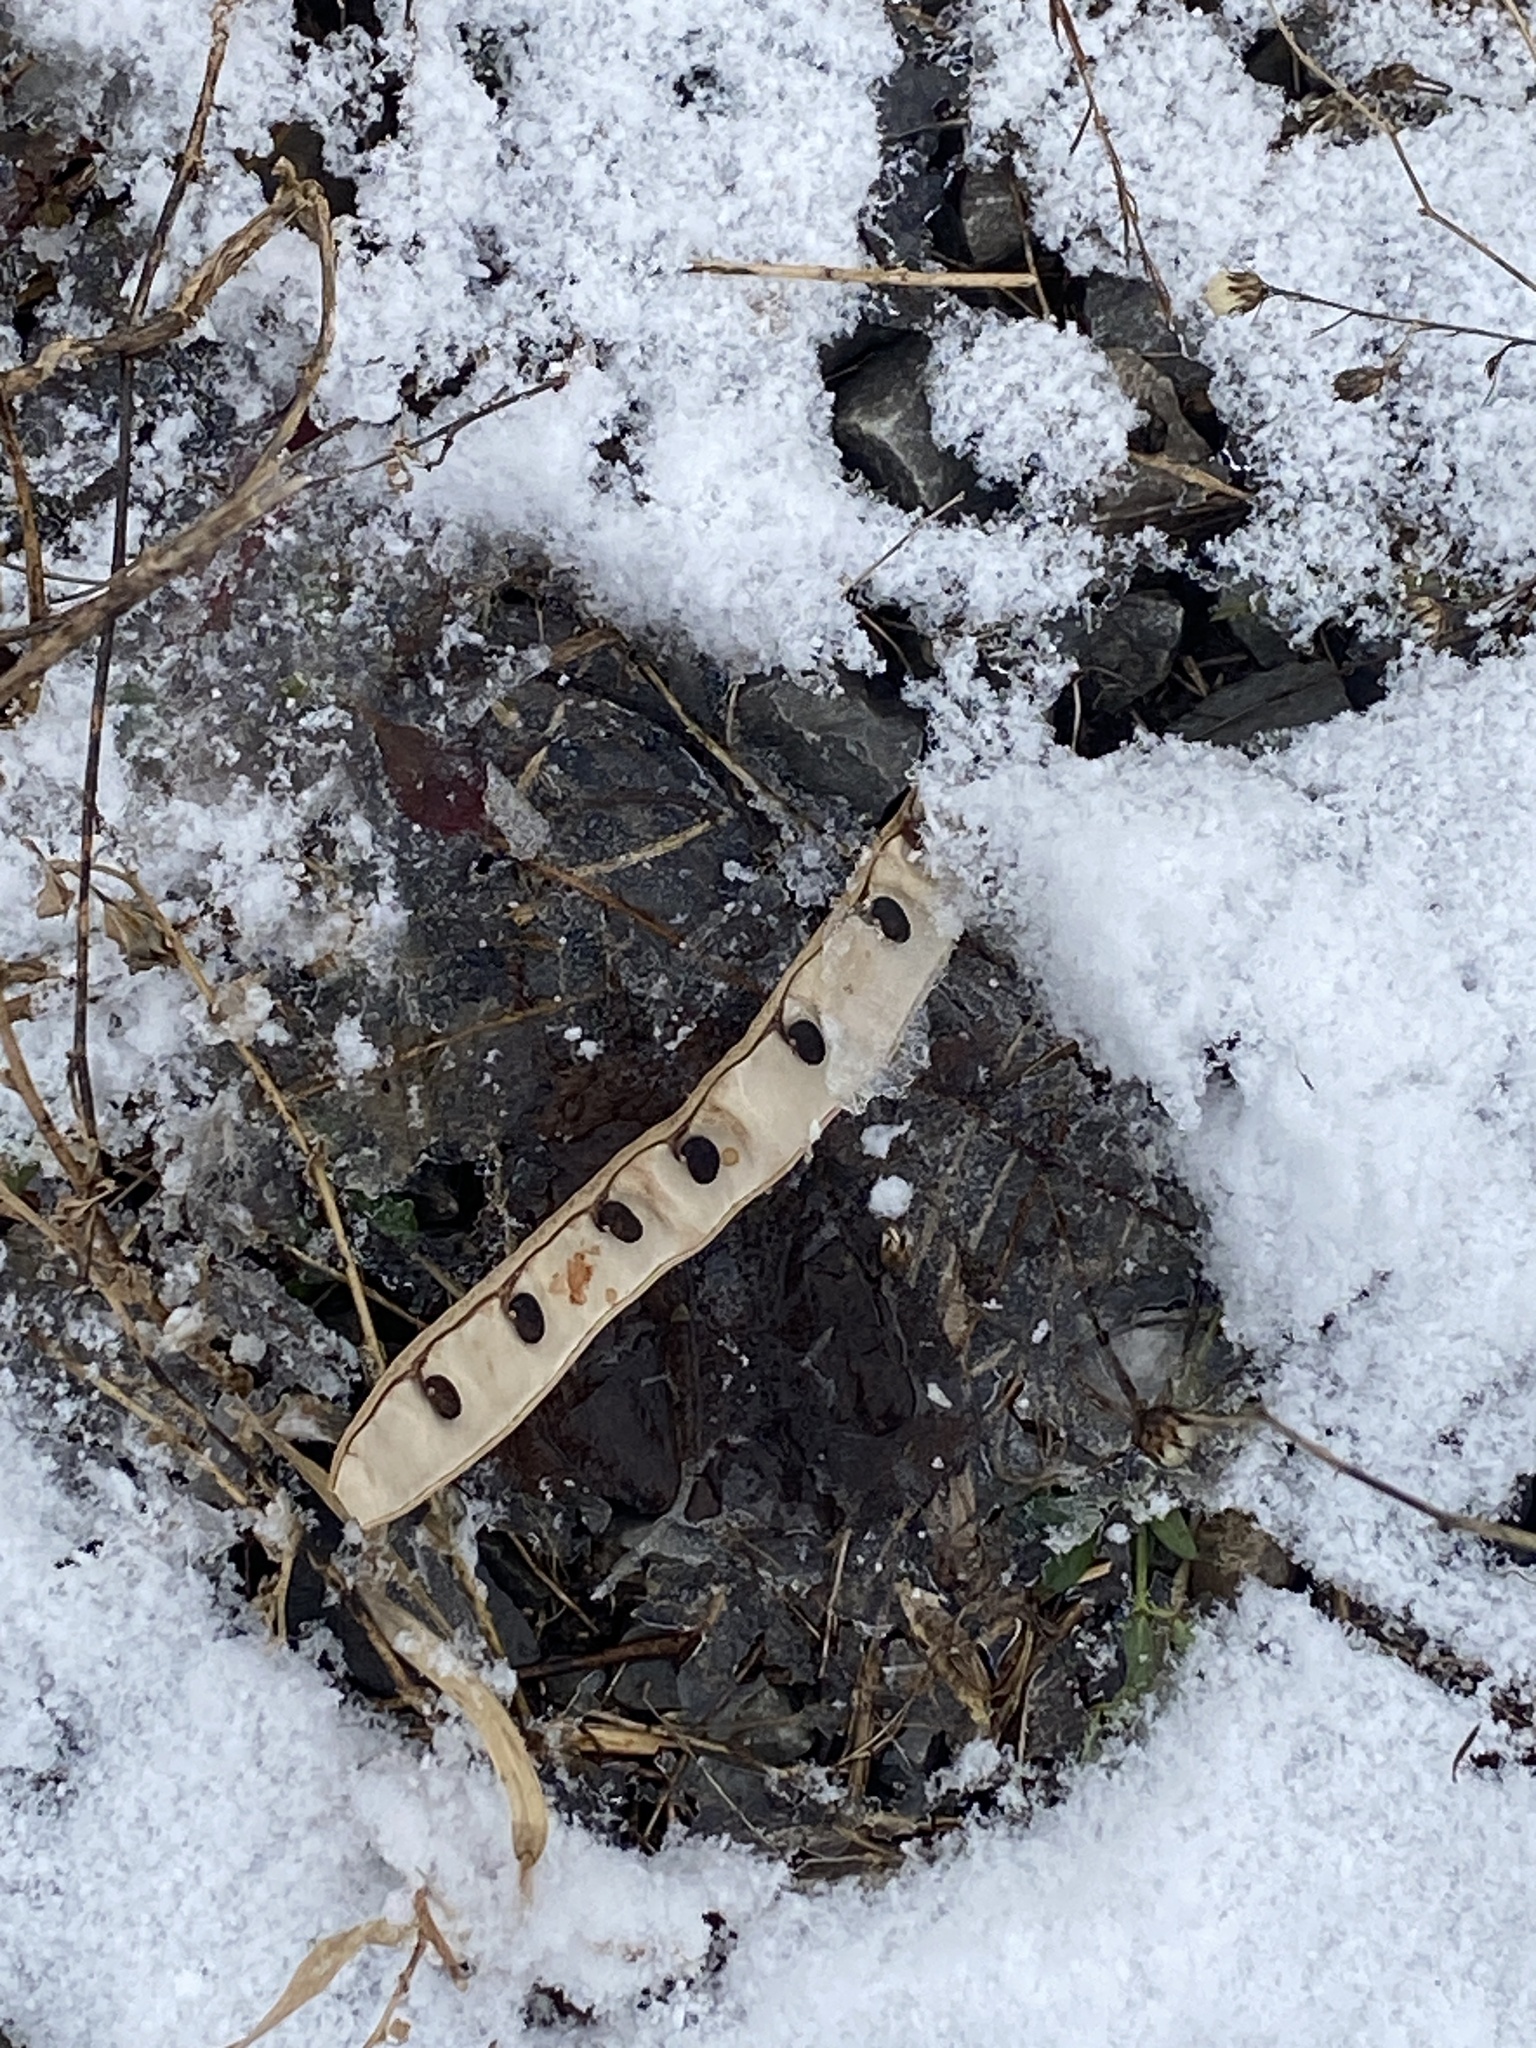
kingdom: Plantae
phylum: Tracheophyta
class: Magnoliopsida
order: Fabales
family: Fabaceae
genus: Robinia
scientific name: Robinia pseudoacacia
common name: Black locust
